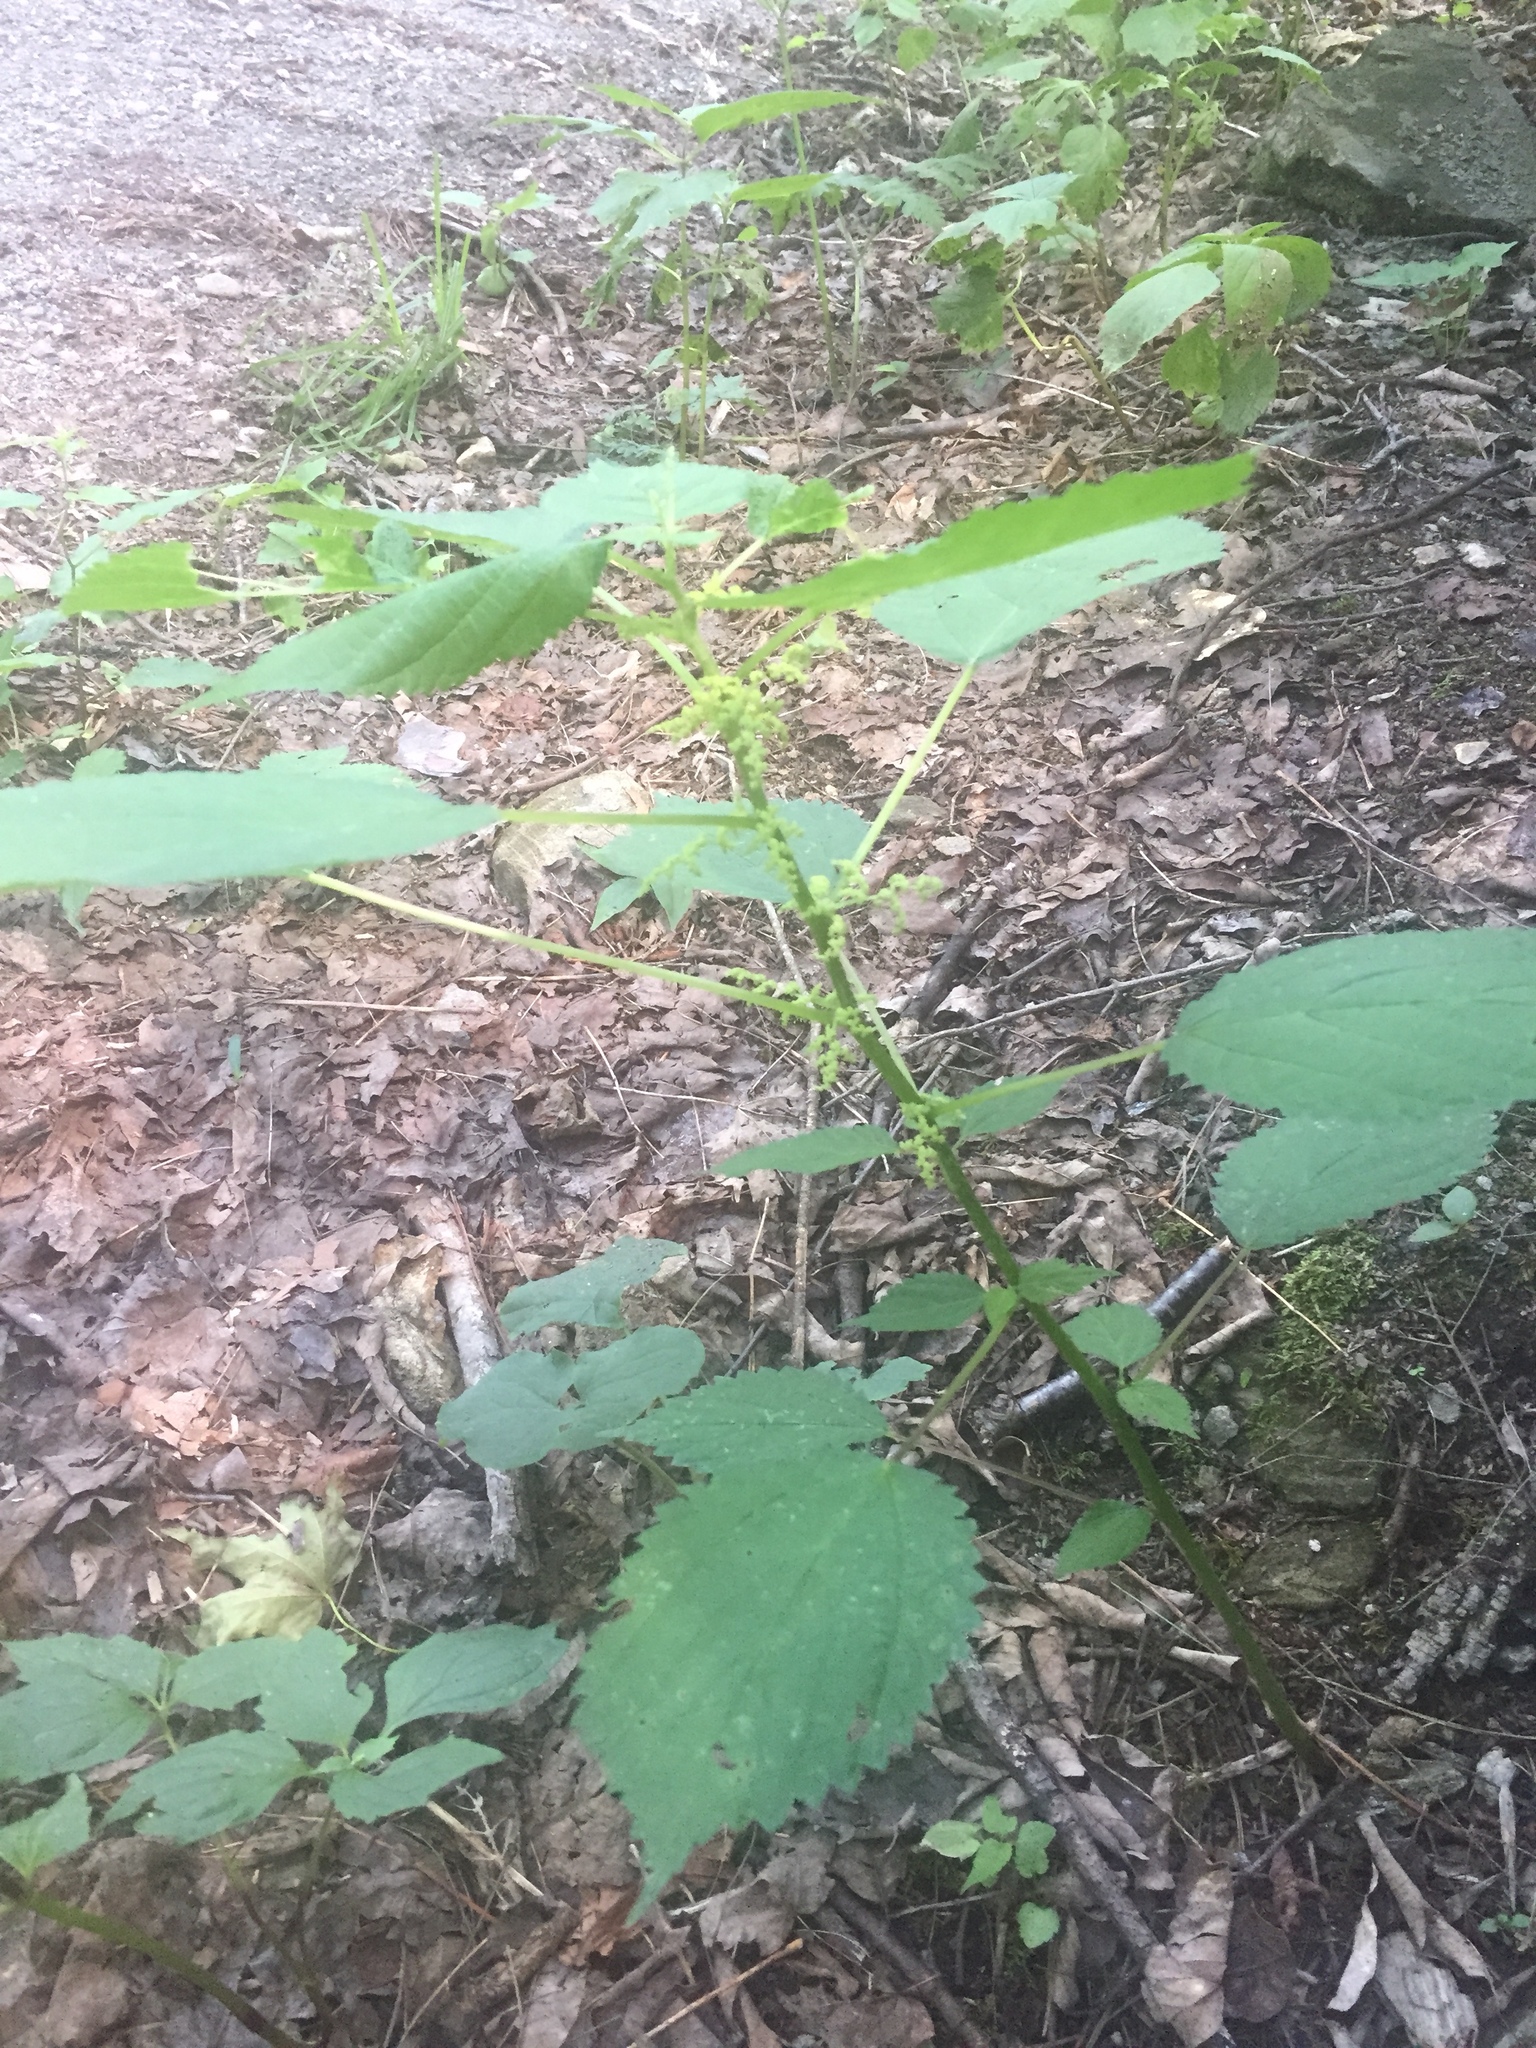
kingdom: Plantae
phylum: Tracheophyta
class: Magnoliopsida
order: Rosales
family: Urticaceae
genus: Laportea
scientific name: Laportea canadensis
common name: Canada nettle
